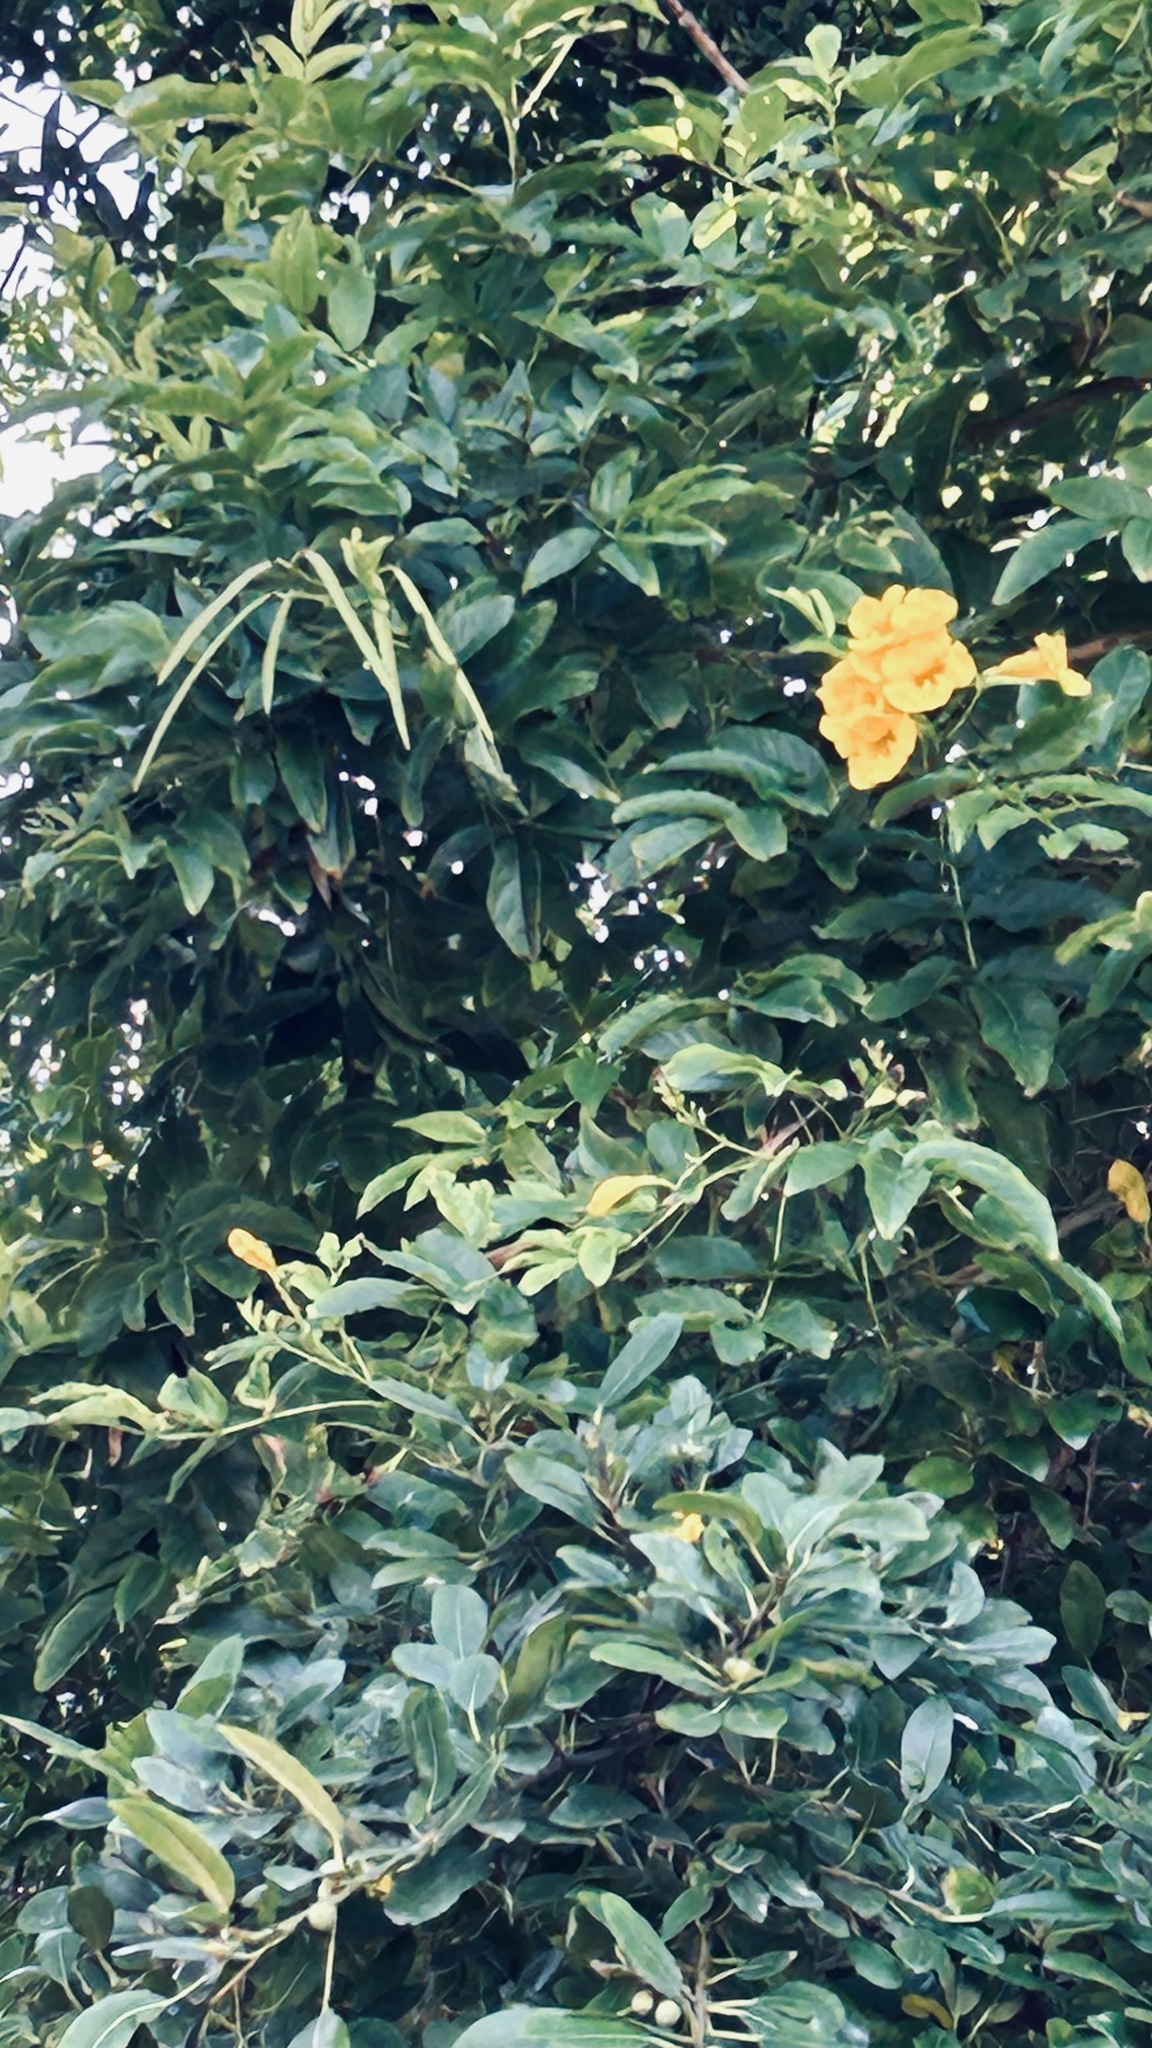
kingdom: Plantae
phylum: Tracheophyta
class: Magnoliopsida
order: Lamiales
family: Bignoniaceae
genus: Tecoma
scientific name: Tecoma stans
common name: Yellow trumpetbush
